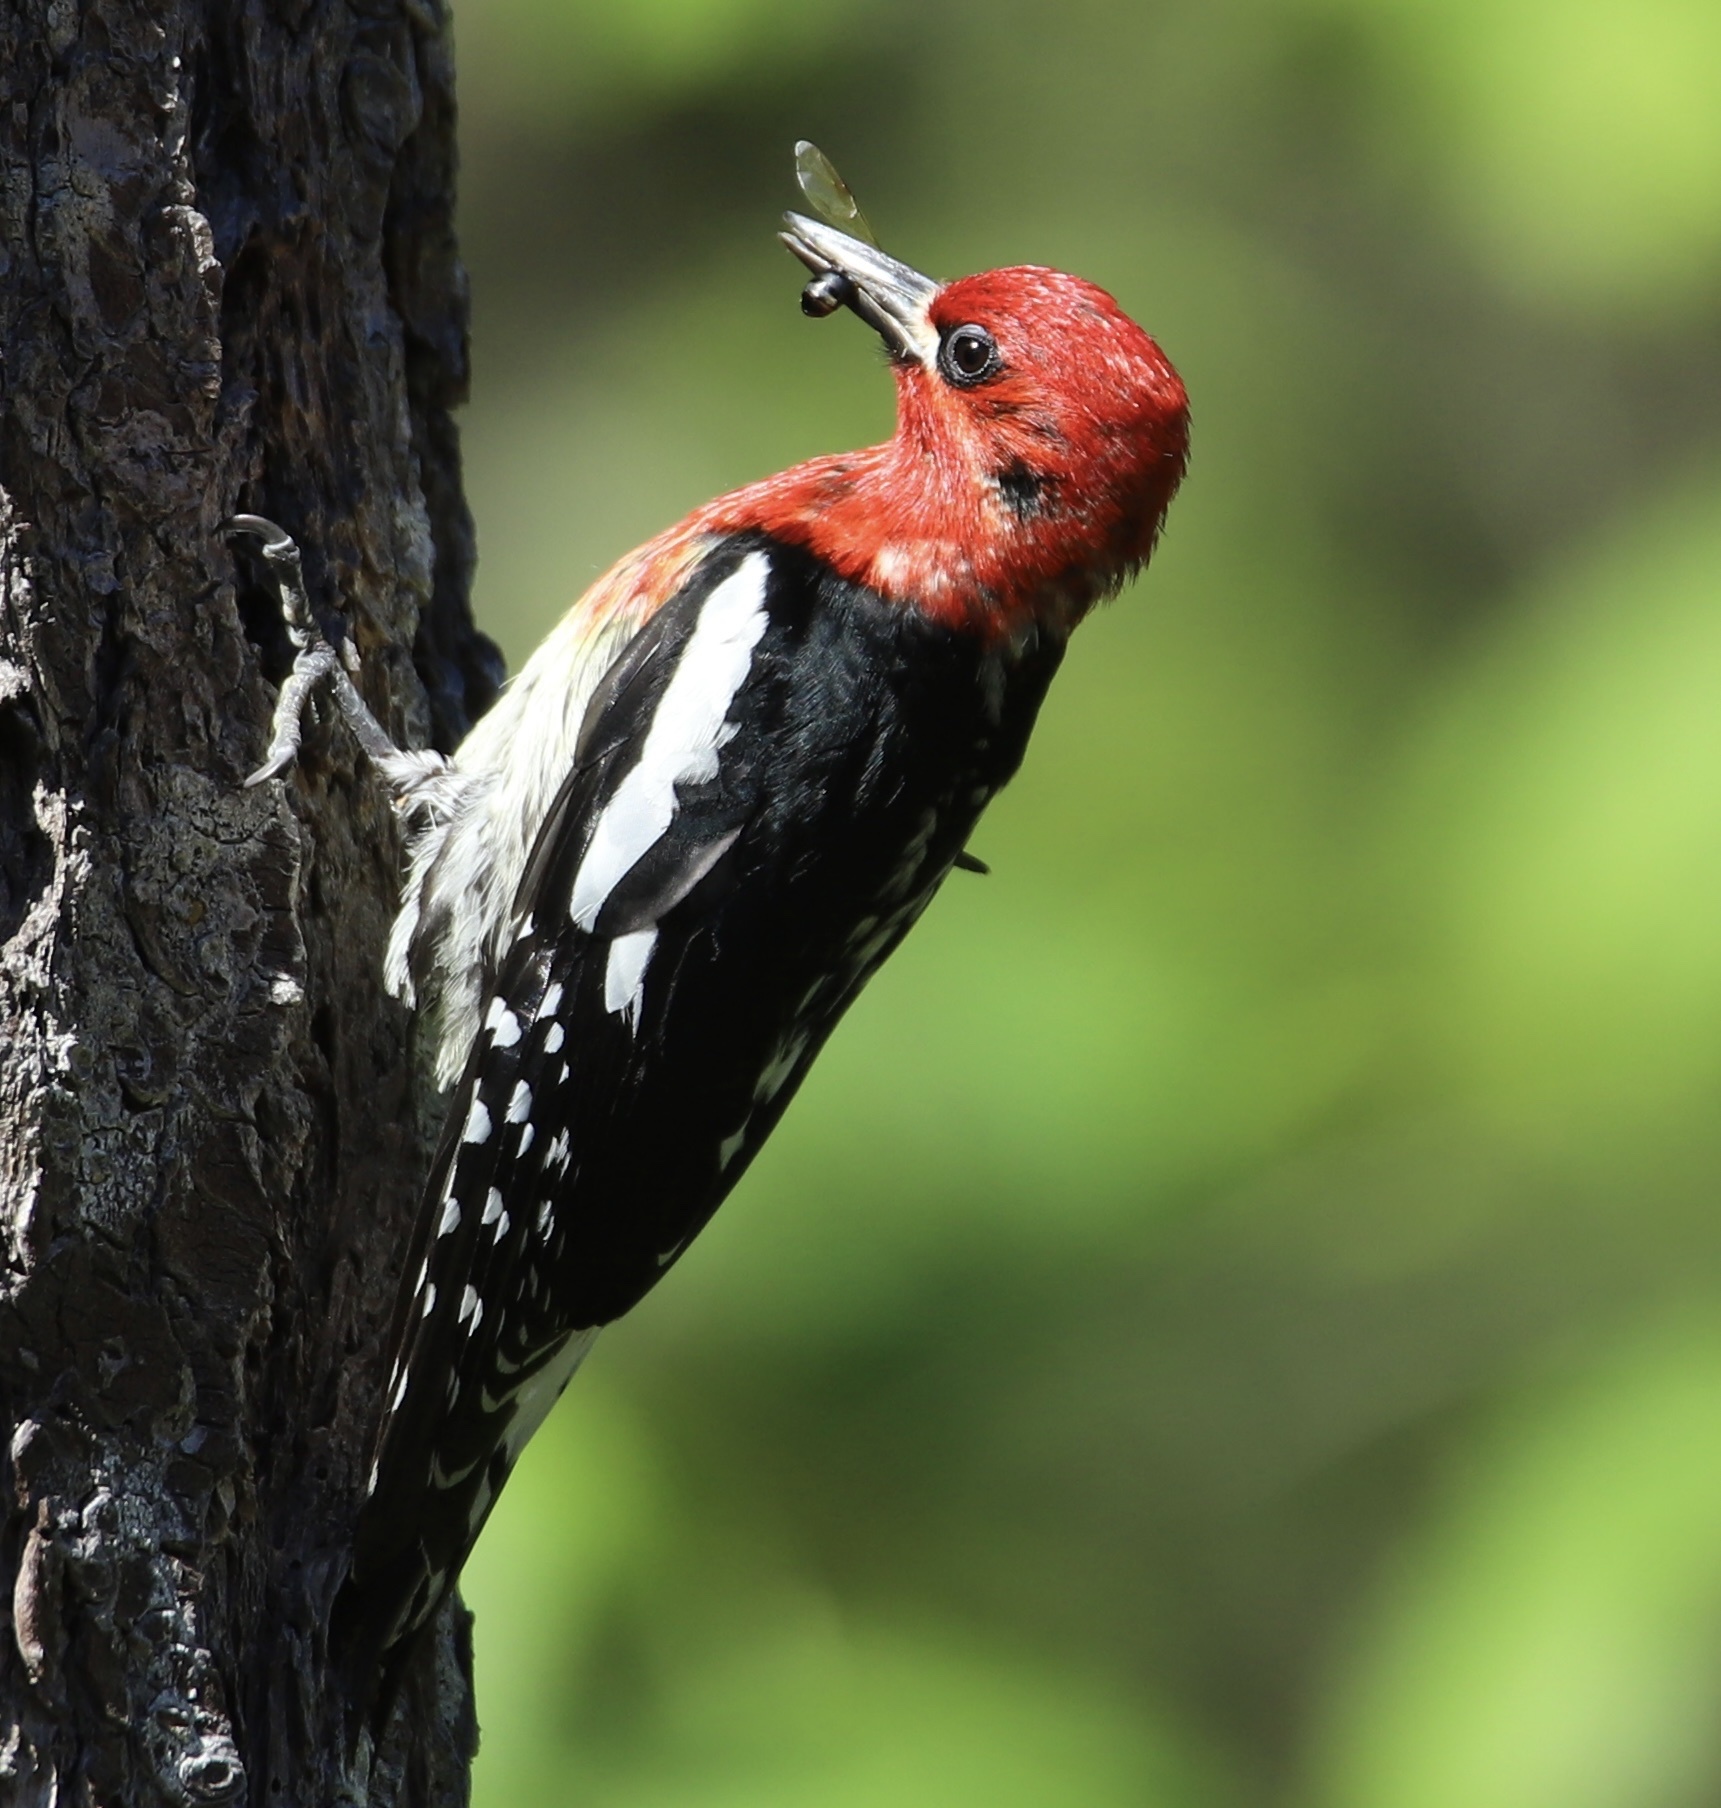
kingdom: Animalia
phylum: Chordata
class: Aves
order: Piciformes
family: Picidae
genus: Sphyrapicus
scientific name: Sphyrapicus ruber
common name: Red-breasted sapsucker
